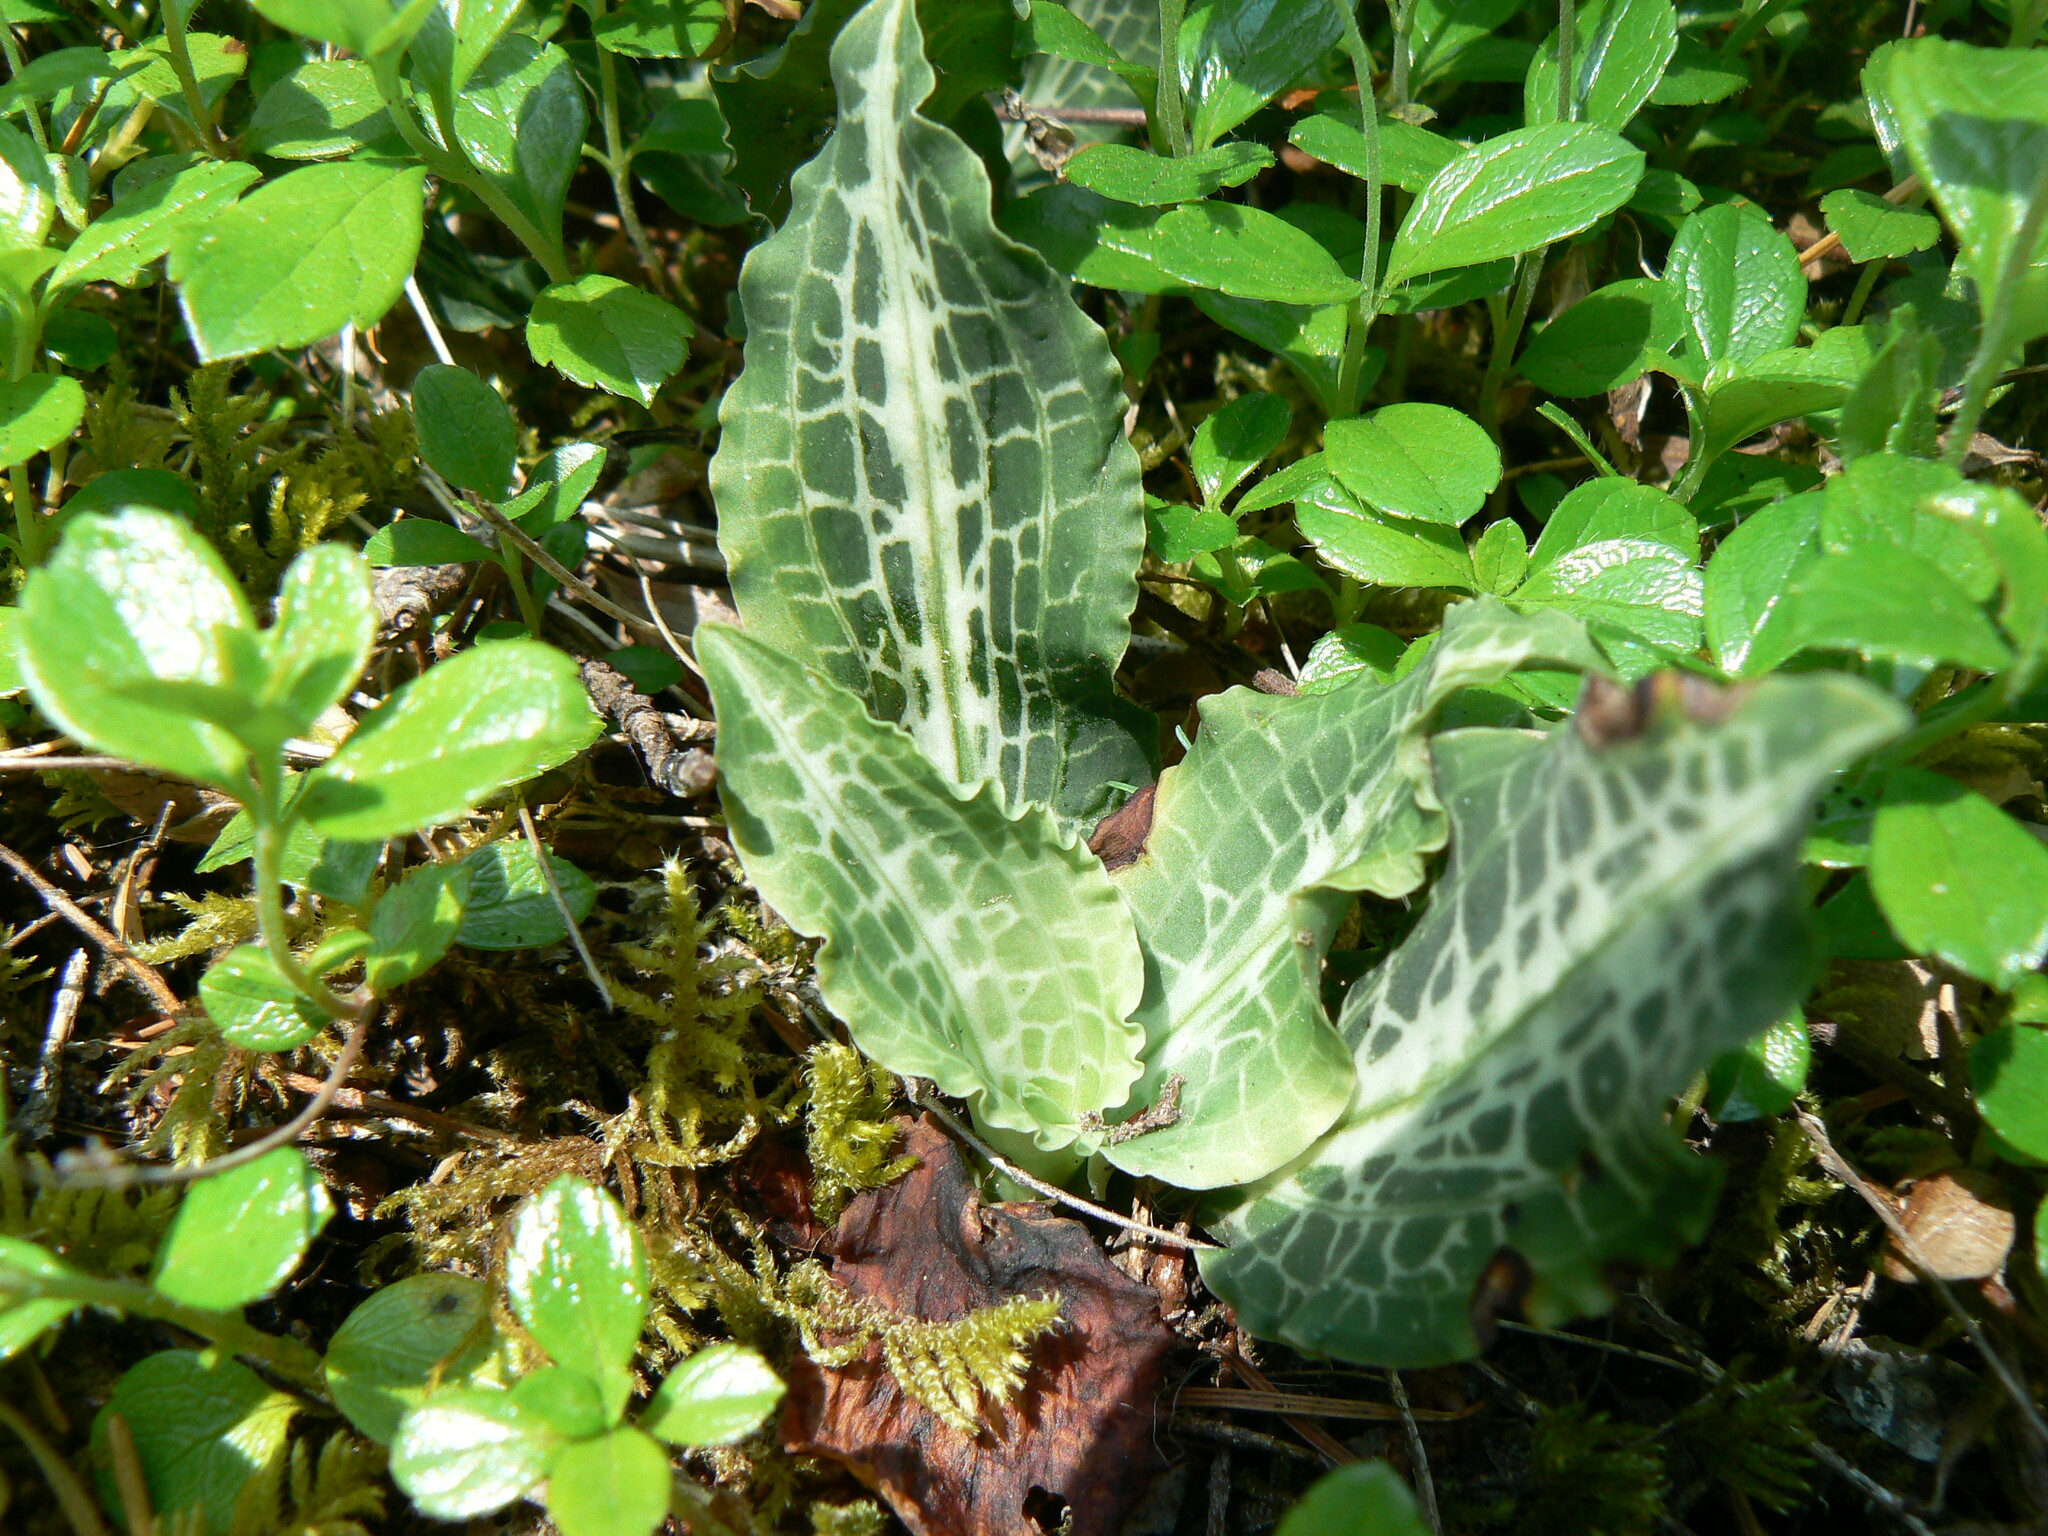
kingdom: Plantae
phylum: Tracheophyta
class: Liliopsida
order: Asparagales
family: Orchidaceae
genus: Goodyera
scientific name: Goodyera oblongifolia
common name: Giant rattlesnake-plantain
